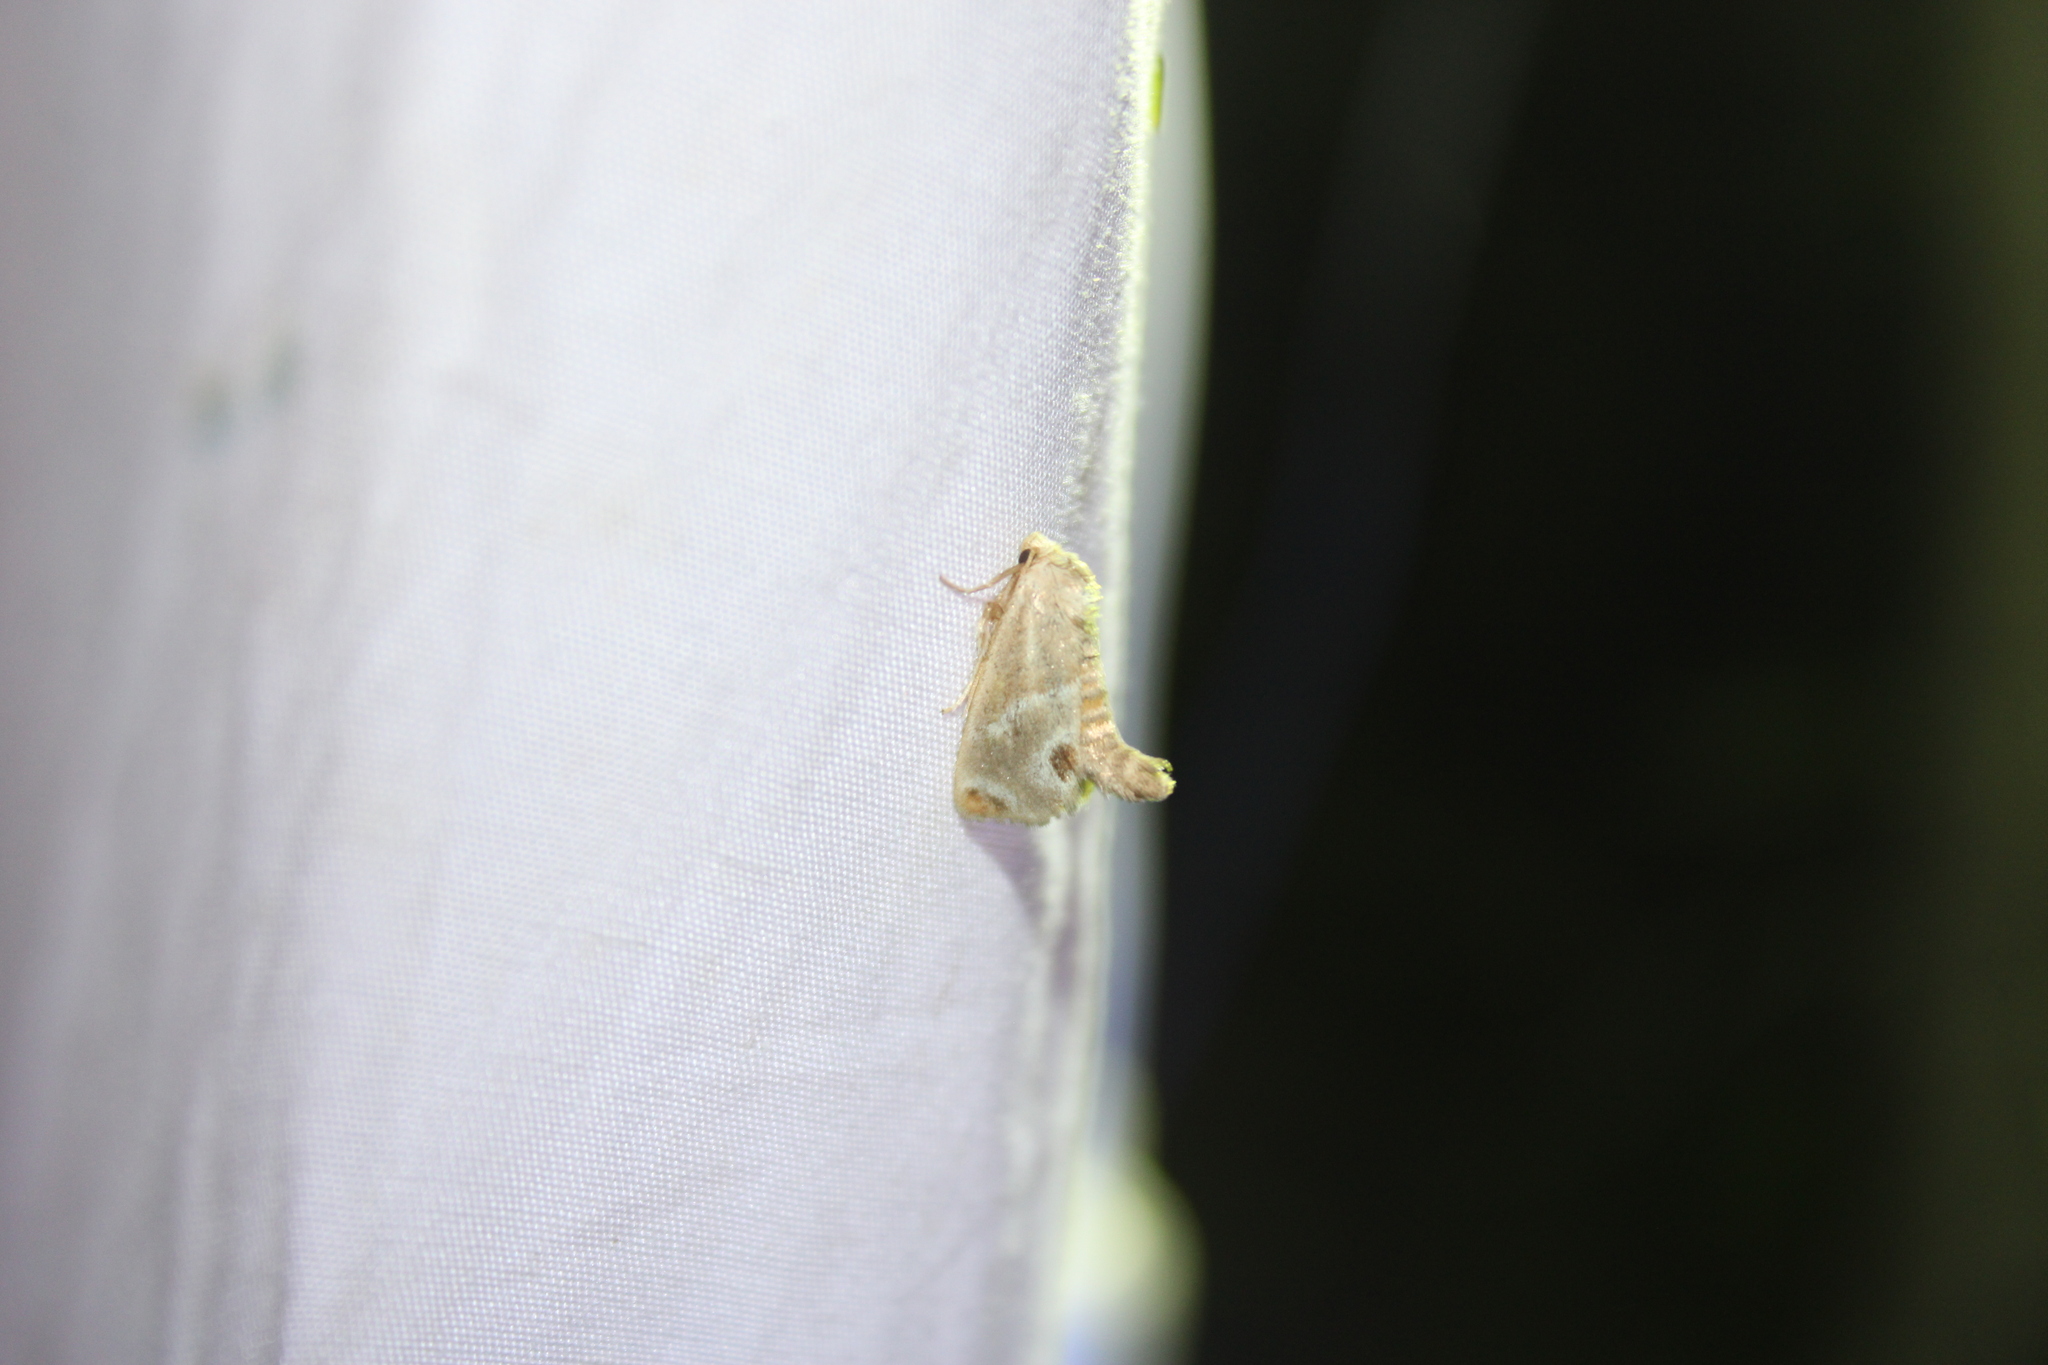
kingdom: Animalia
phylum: Arthropoda
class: Insecta
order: Lepidoptera
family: Limacodidae
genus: Apoda
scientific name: Apoda biguttata
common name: Shagreened slug moth
